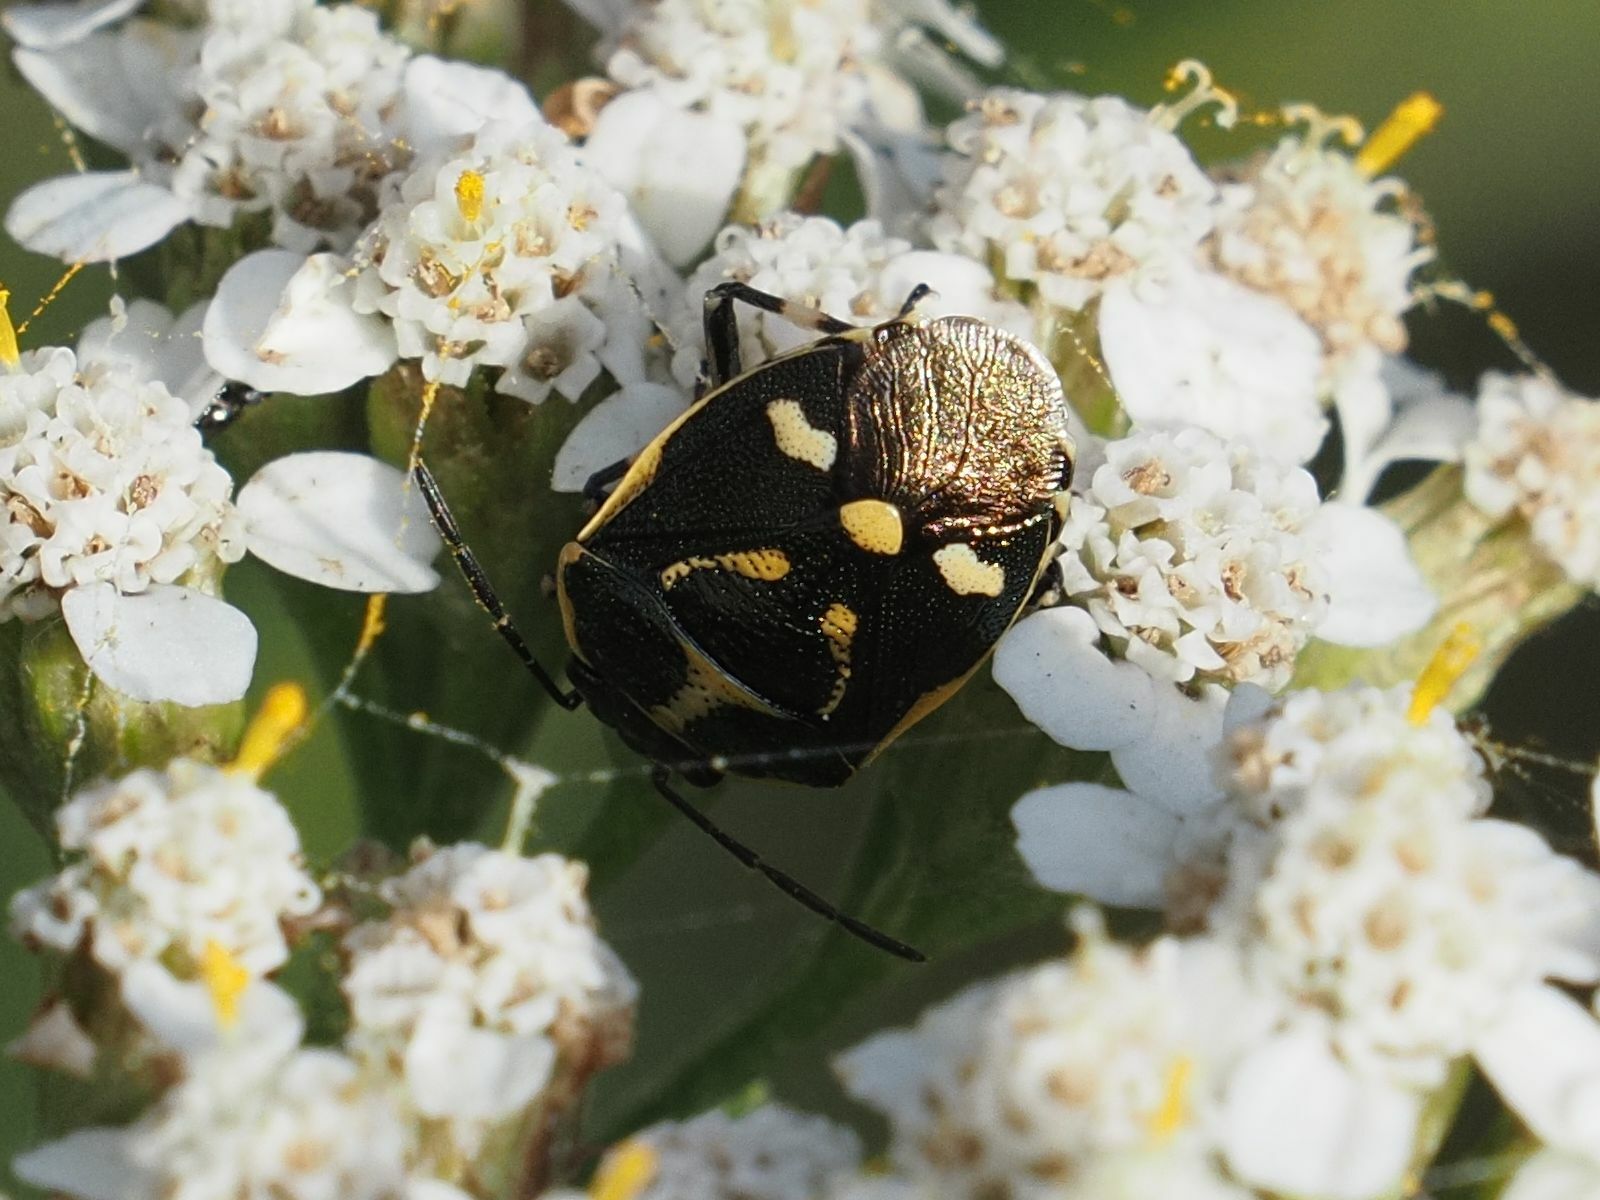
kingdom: Animalia
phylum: Arthropoda
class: Insecta
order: Hemiptera
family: Pentatomidae
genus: Eurydema
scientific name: Eurydema oleracea
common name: Cabbage bug
